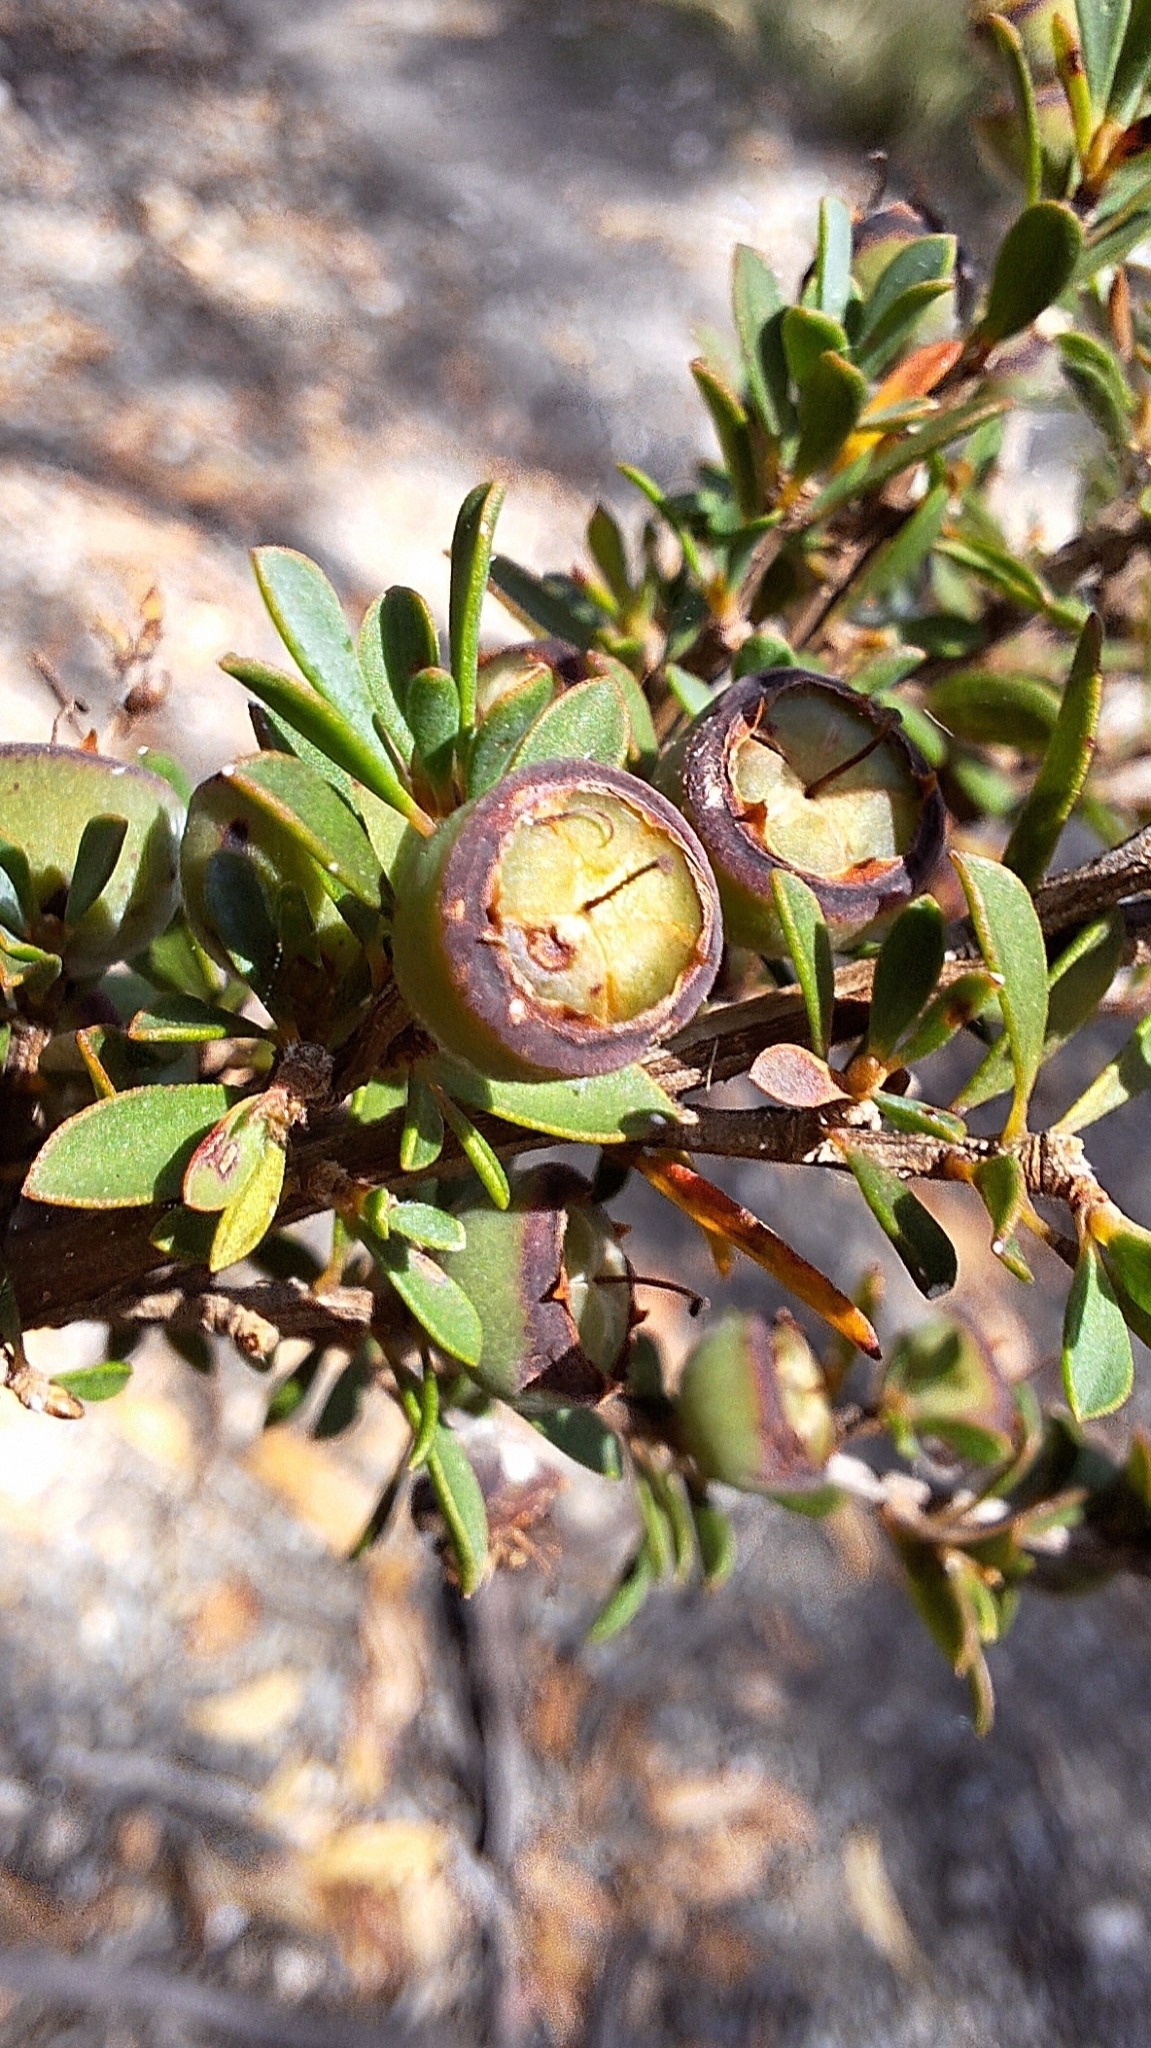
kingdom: Plantae
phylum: Tracheophyta
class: Magnoliopsida
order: Myrtales
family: Myrtaceae
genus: Leptospermum
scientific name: Leptospermum myrsinoides
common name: Heath teatree
